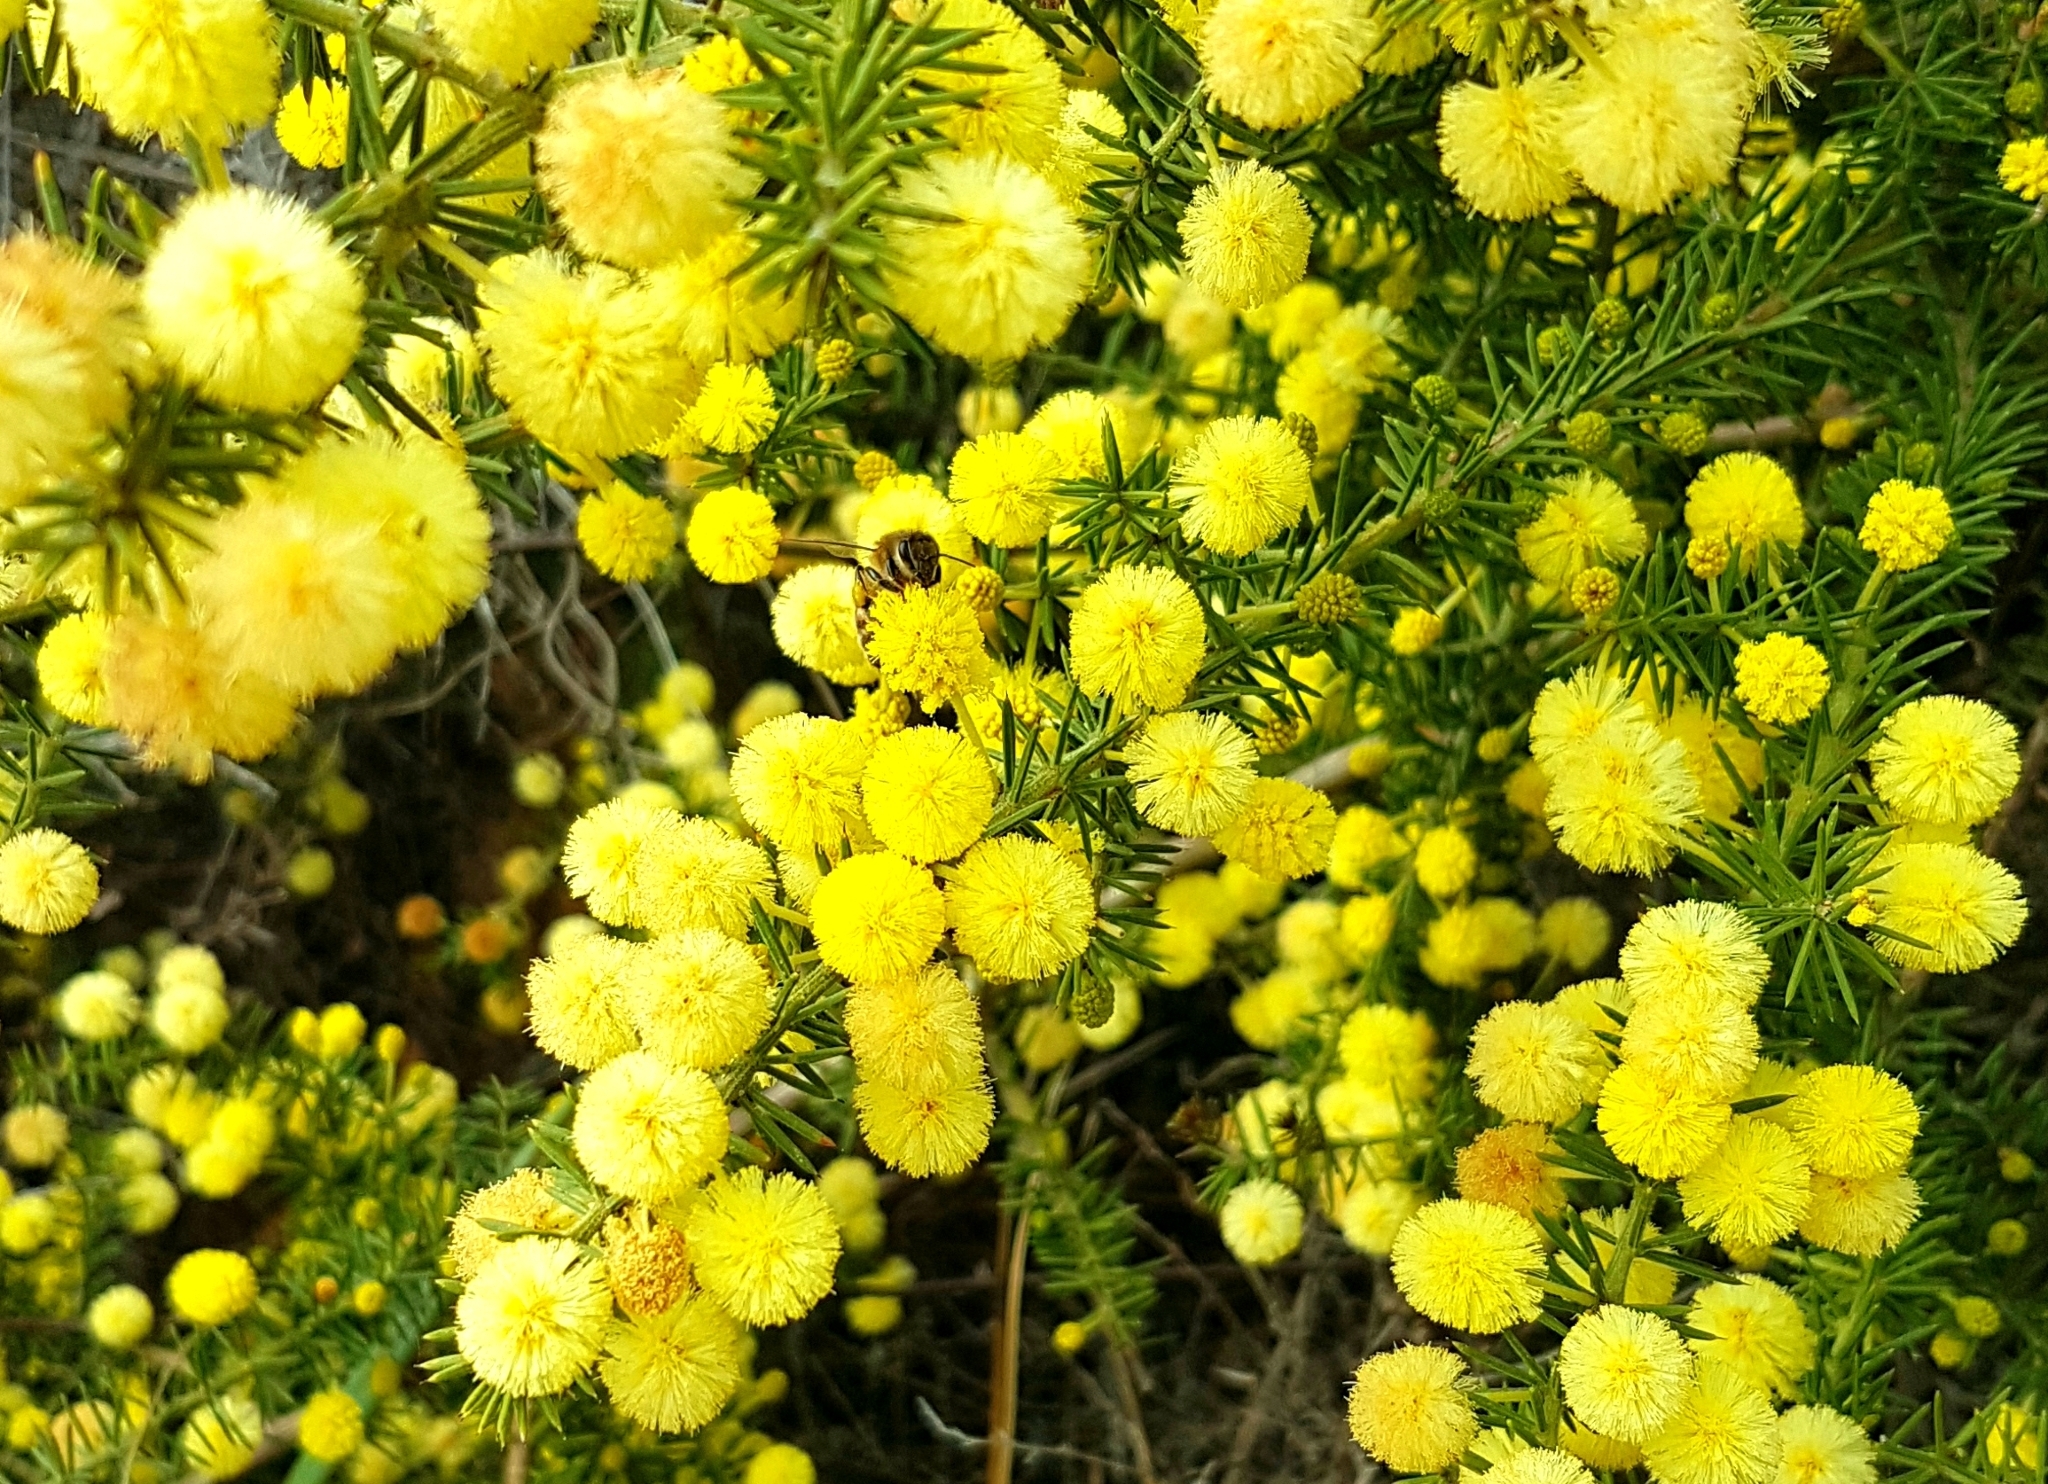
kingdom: Plantae
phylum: Tracheophyta
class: Magnoliopsida
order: Fabales
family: Fabaceae
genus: Acacia
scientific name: Acacia verticillata
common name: Prickly moses
